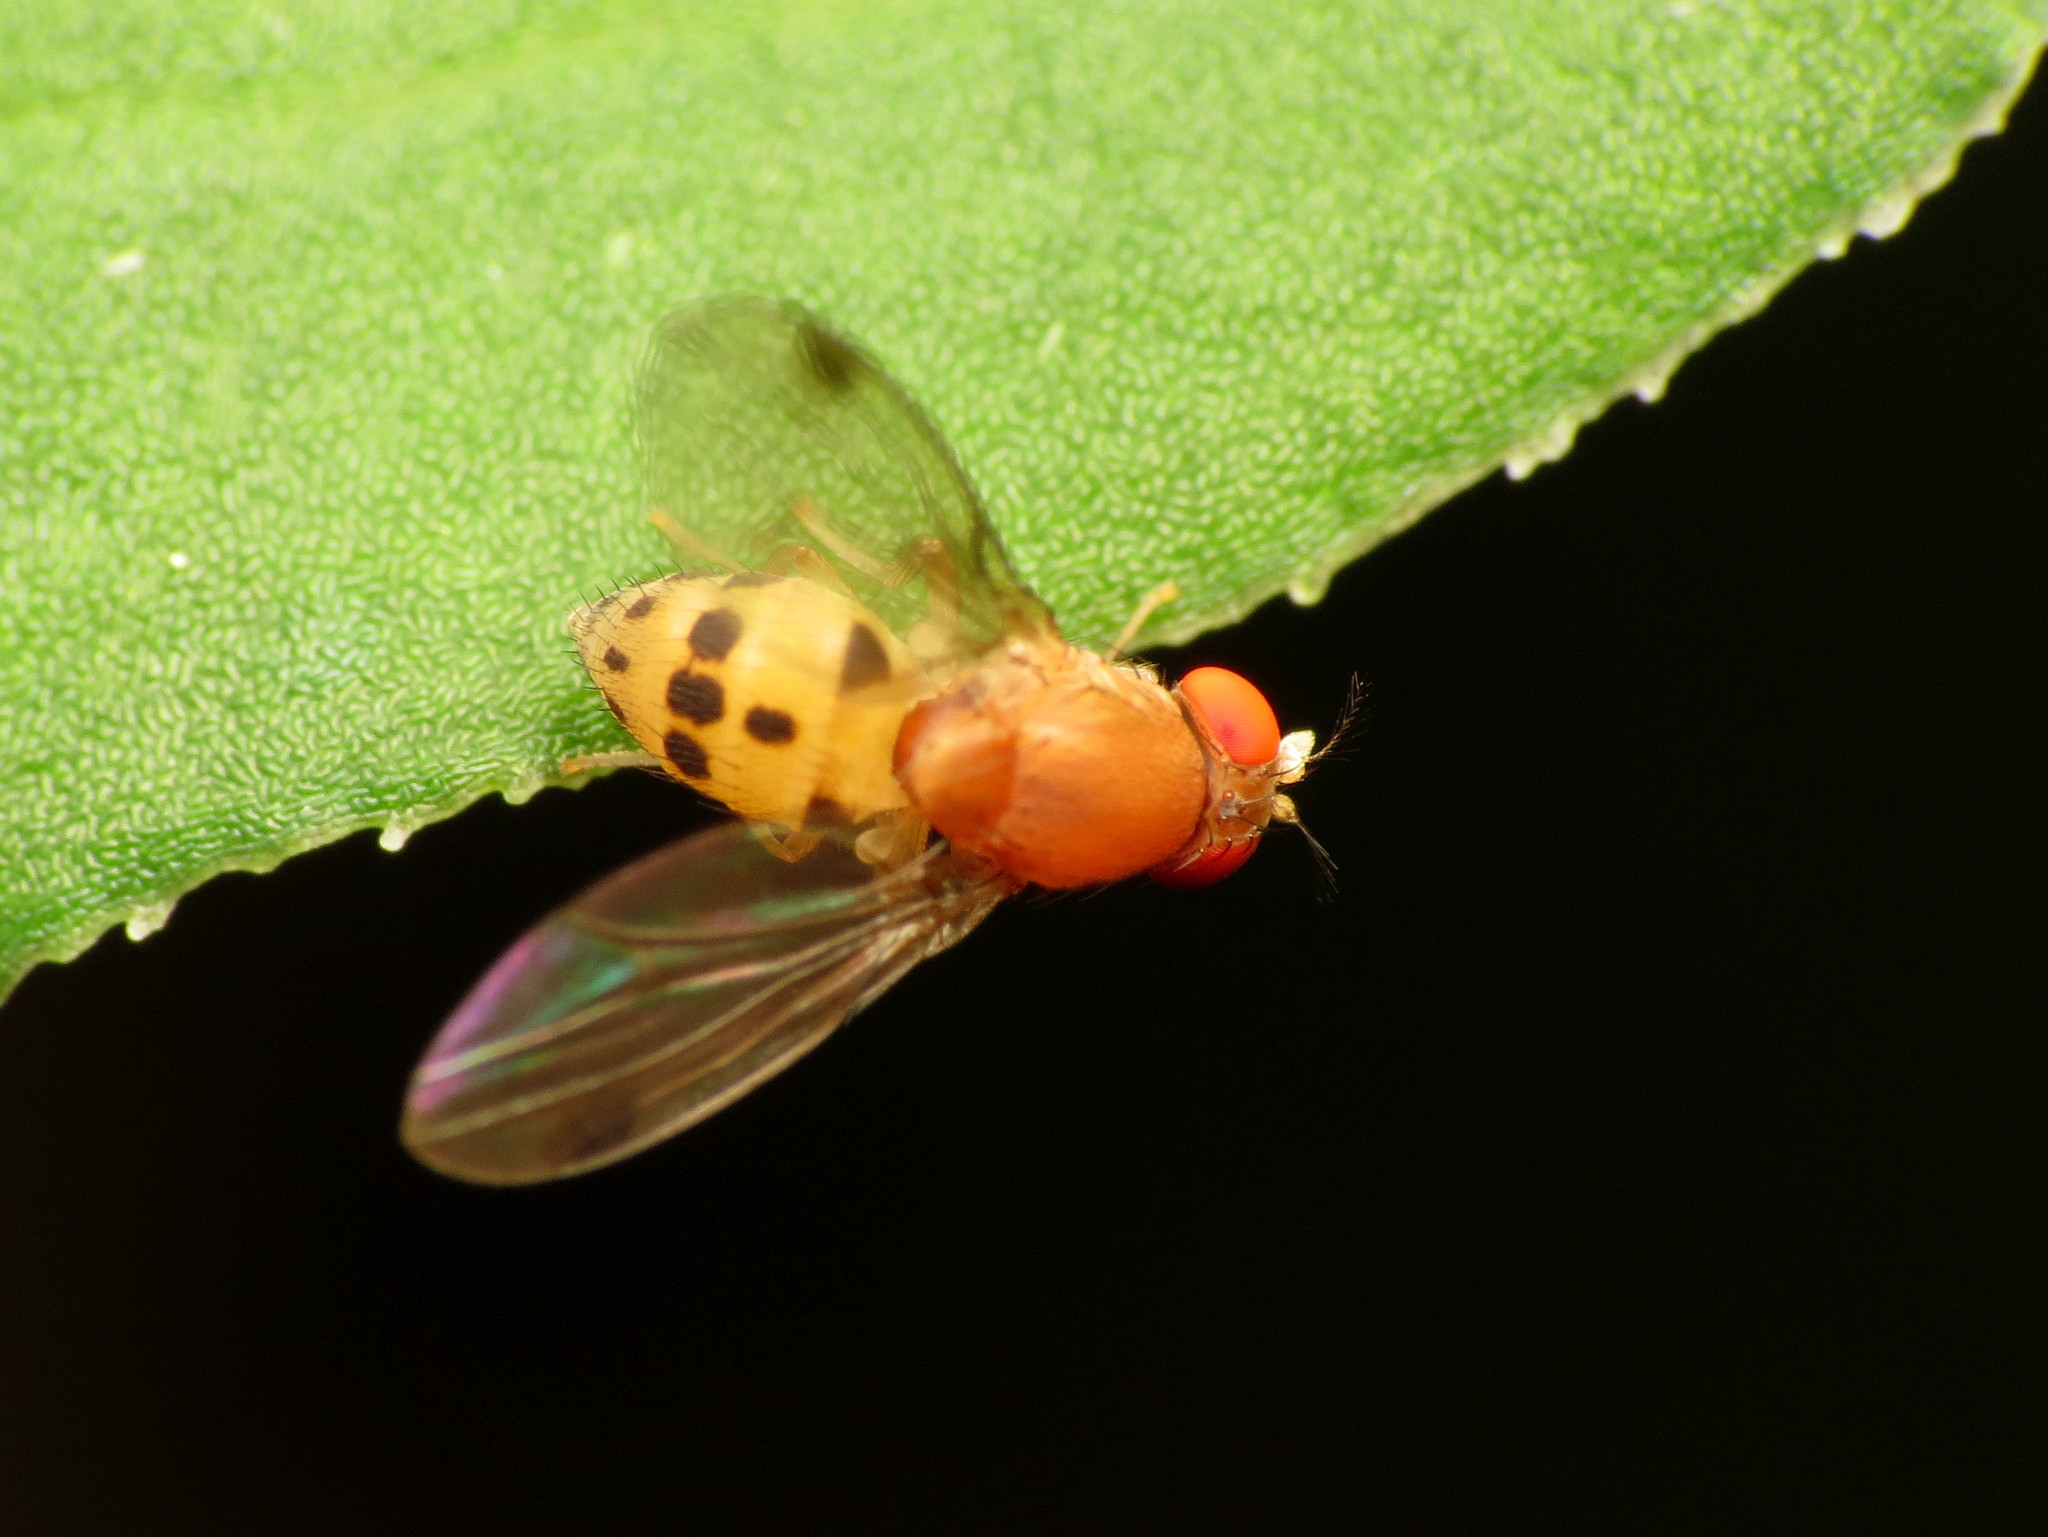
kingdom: Animalia
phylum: Arthropoda
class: Insecta
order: Diptera
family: Drosophilidae
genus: Leucophenga
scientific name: Leucophenga varia
